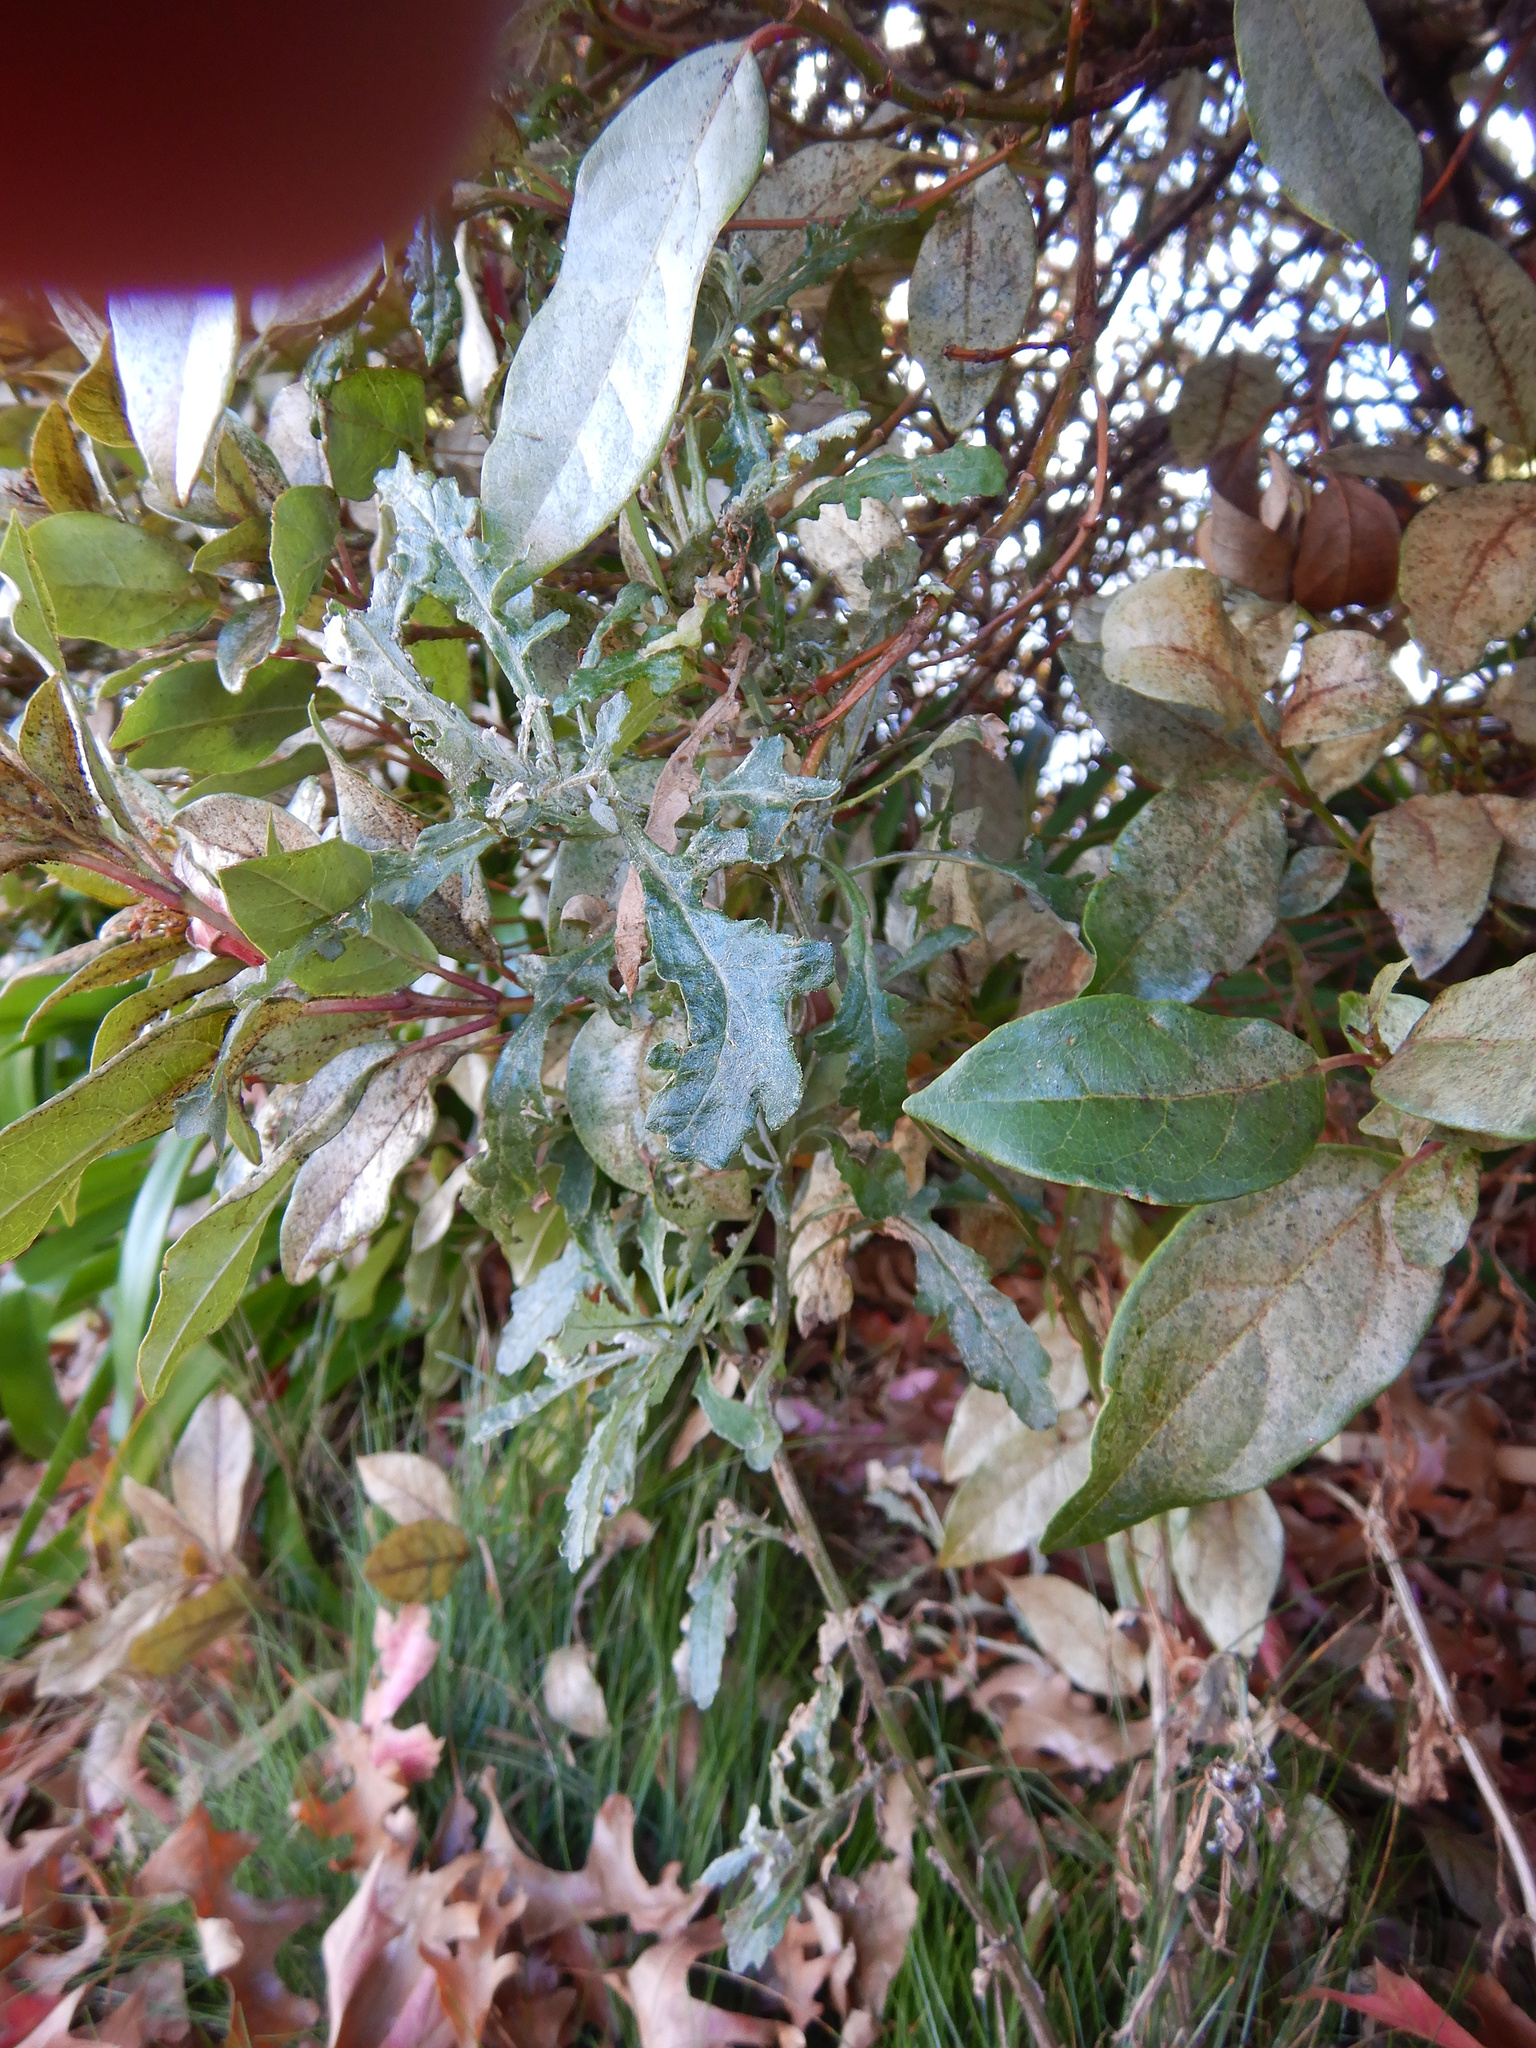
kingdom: Plantae
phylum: Tracheophyta
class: Magnoliopsida
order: Asterales
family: Asteraceae
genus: Senecio
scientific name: Senecio glomeratus
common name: Cutleaf burnweed
